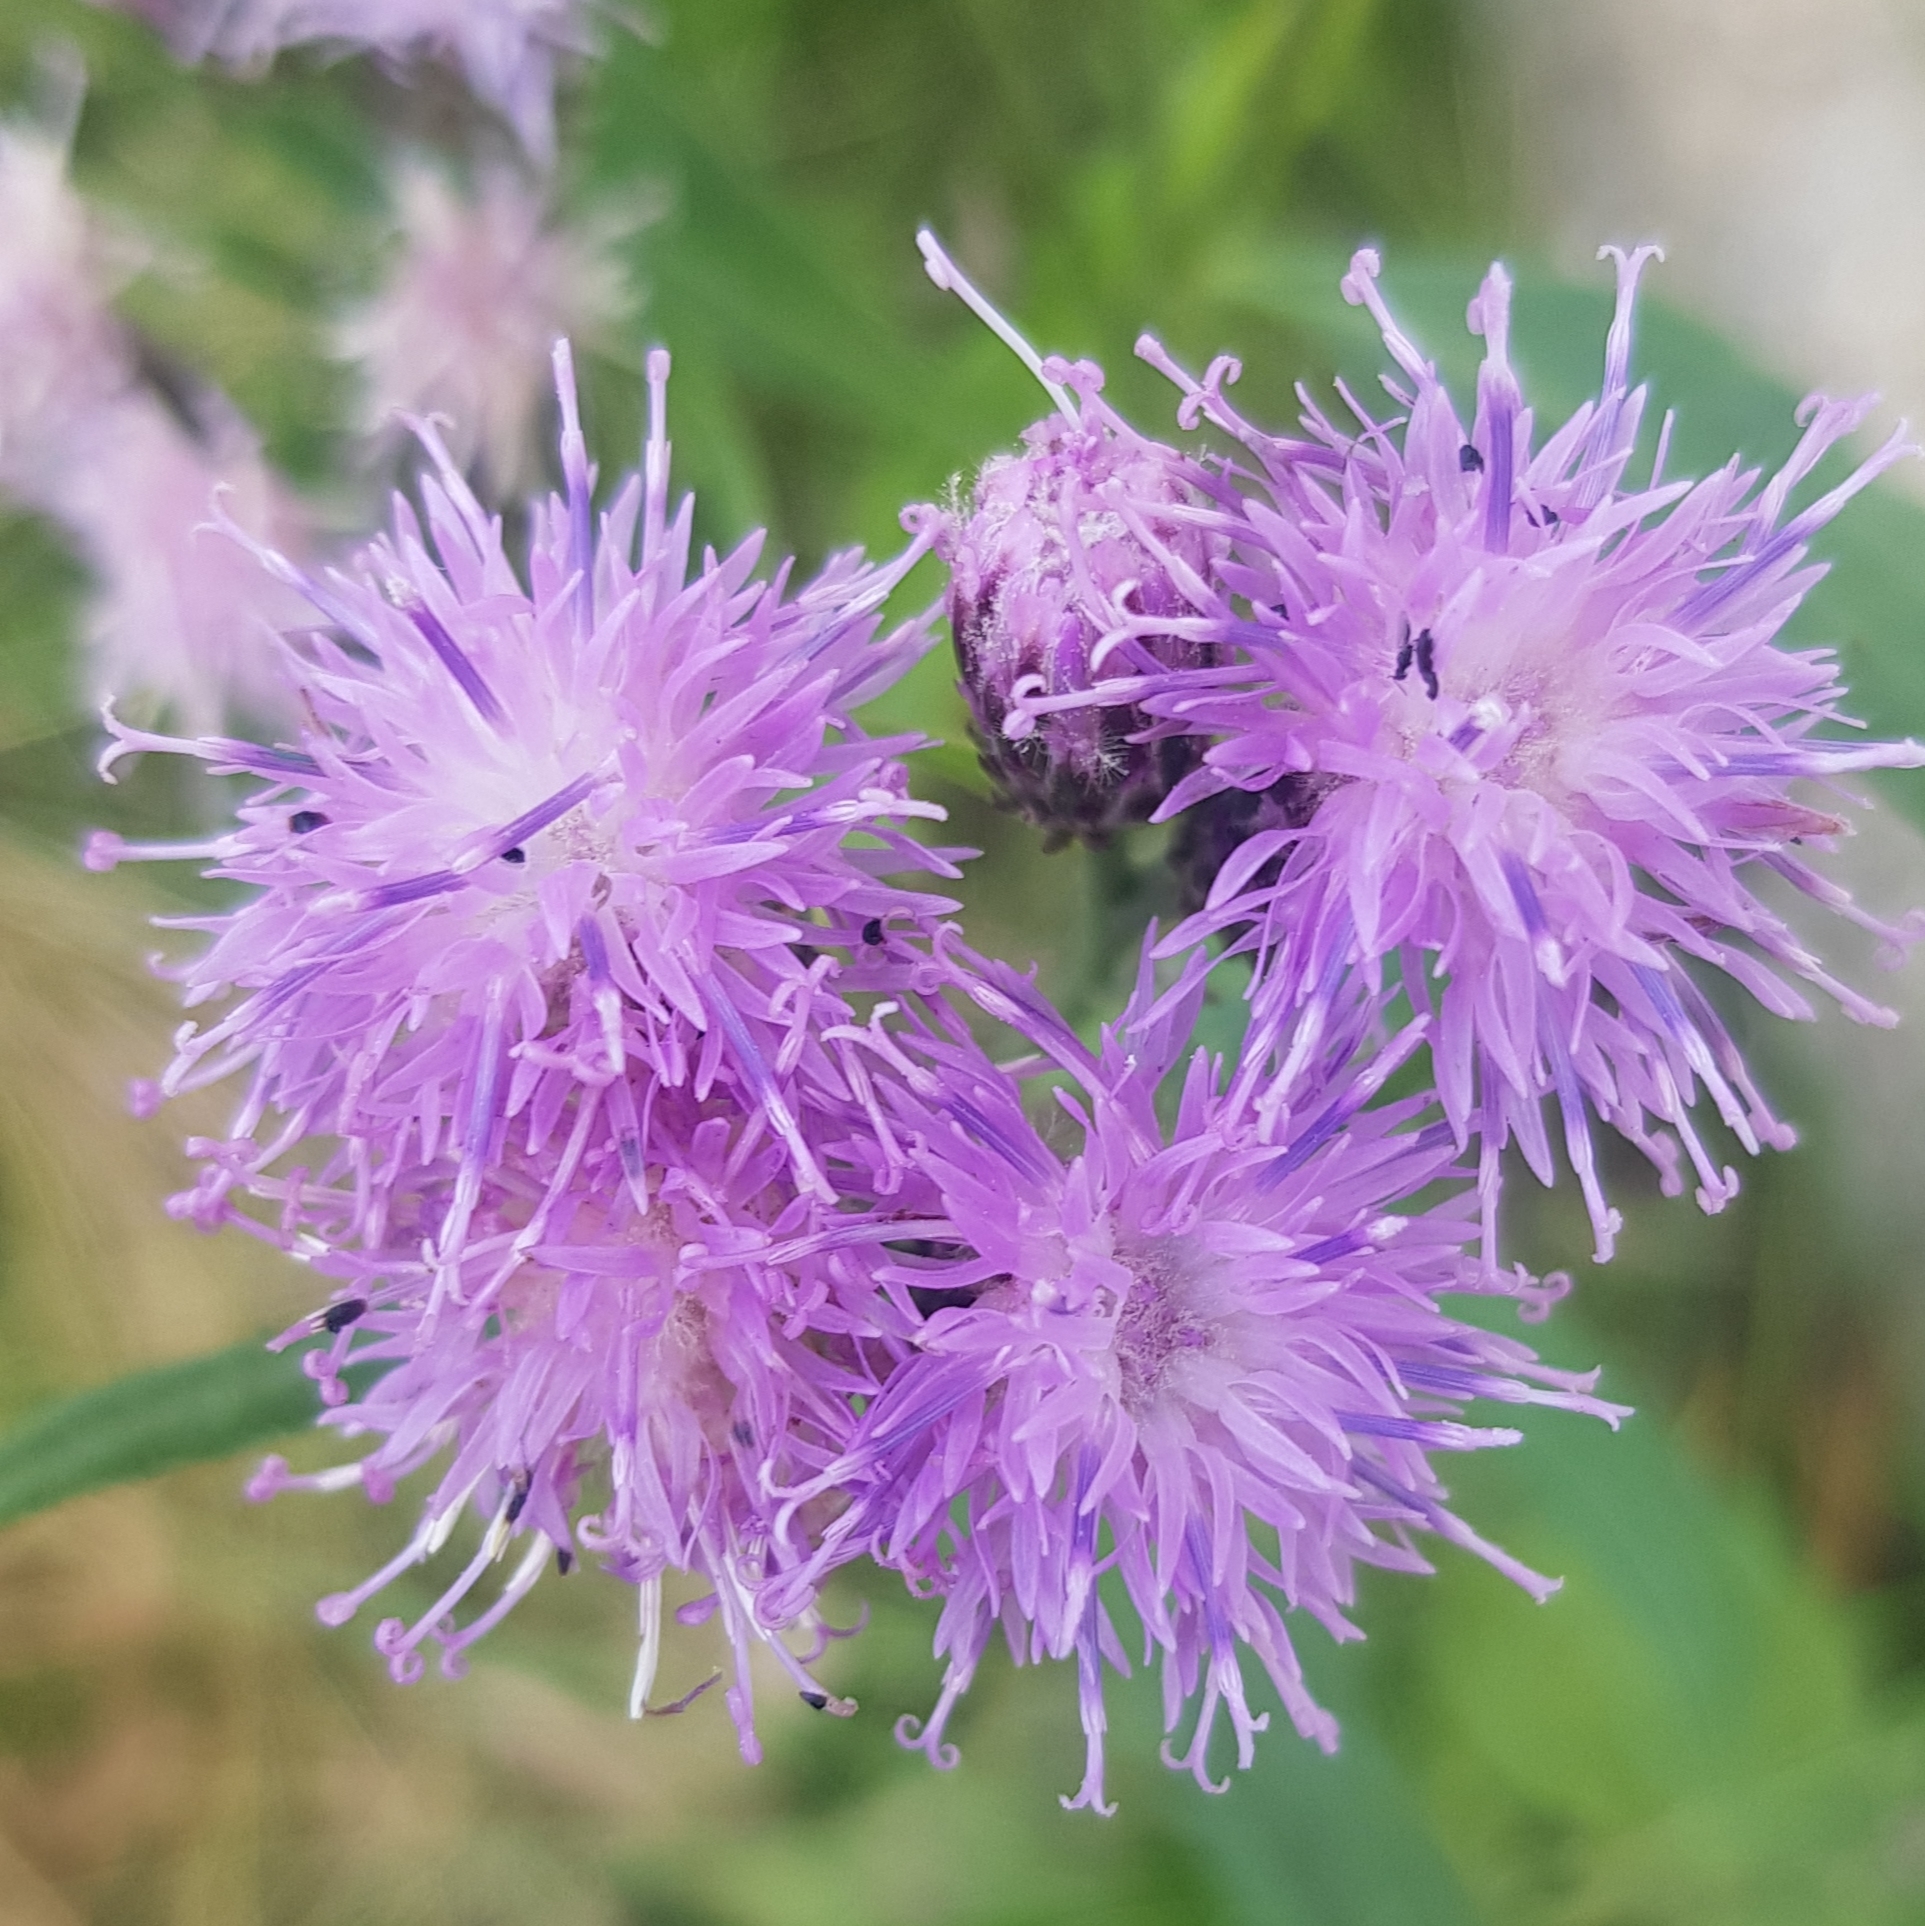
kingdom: Plantae
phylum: Tracheophyta
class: Magnoliopsida
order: Asterales
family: Asteraceae
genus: Saussurea
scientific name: Saussurea amara
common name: Alberta sawwort
